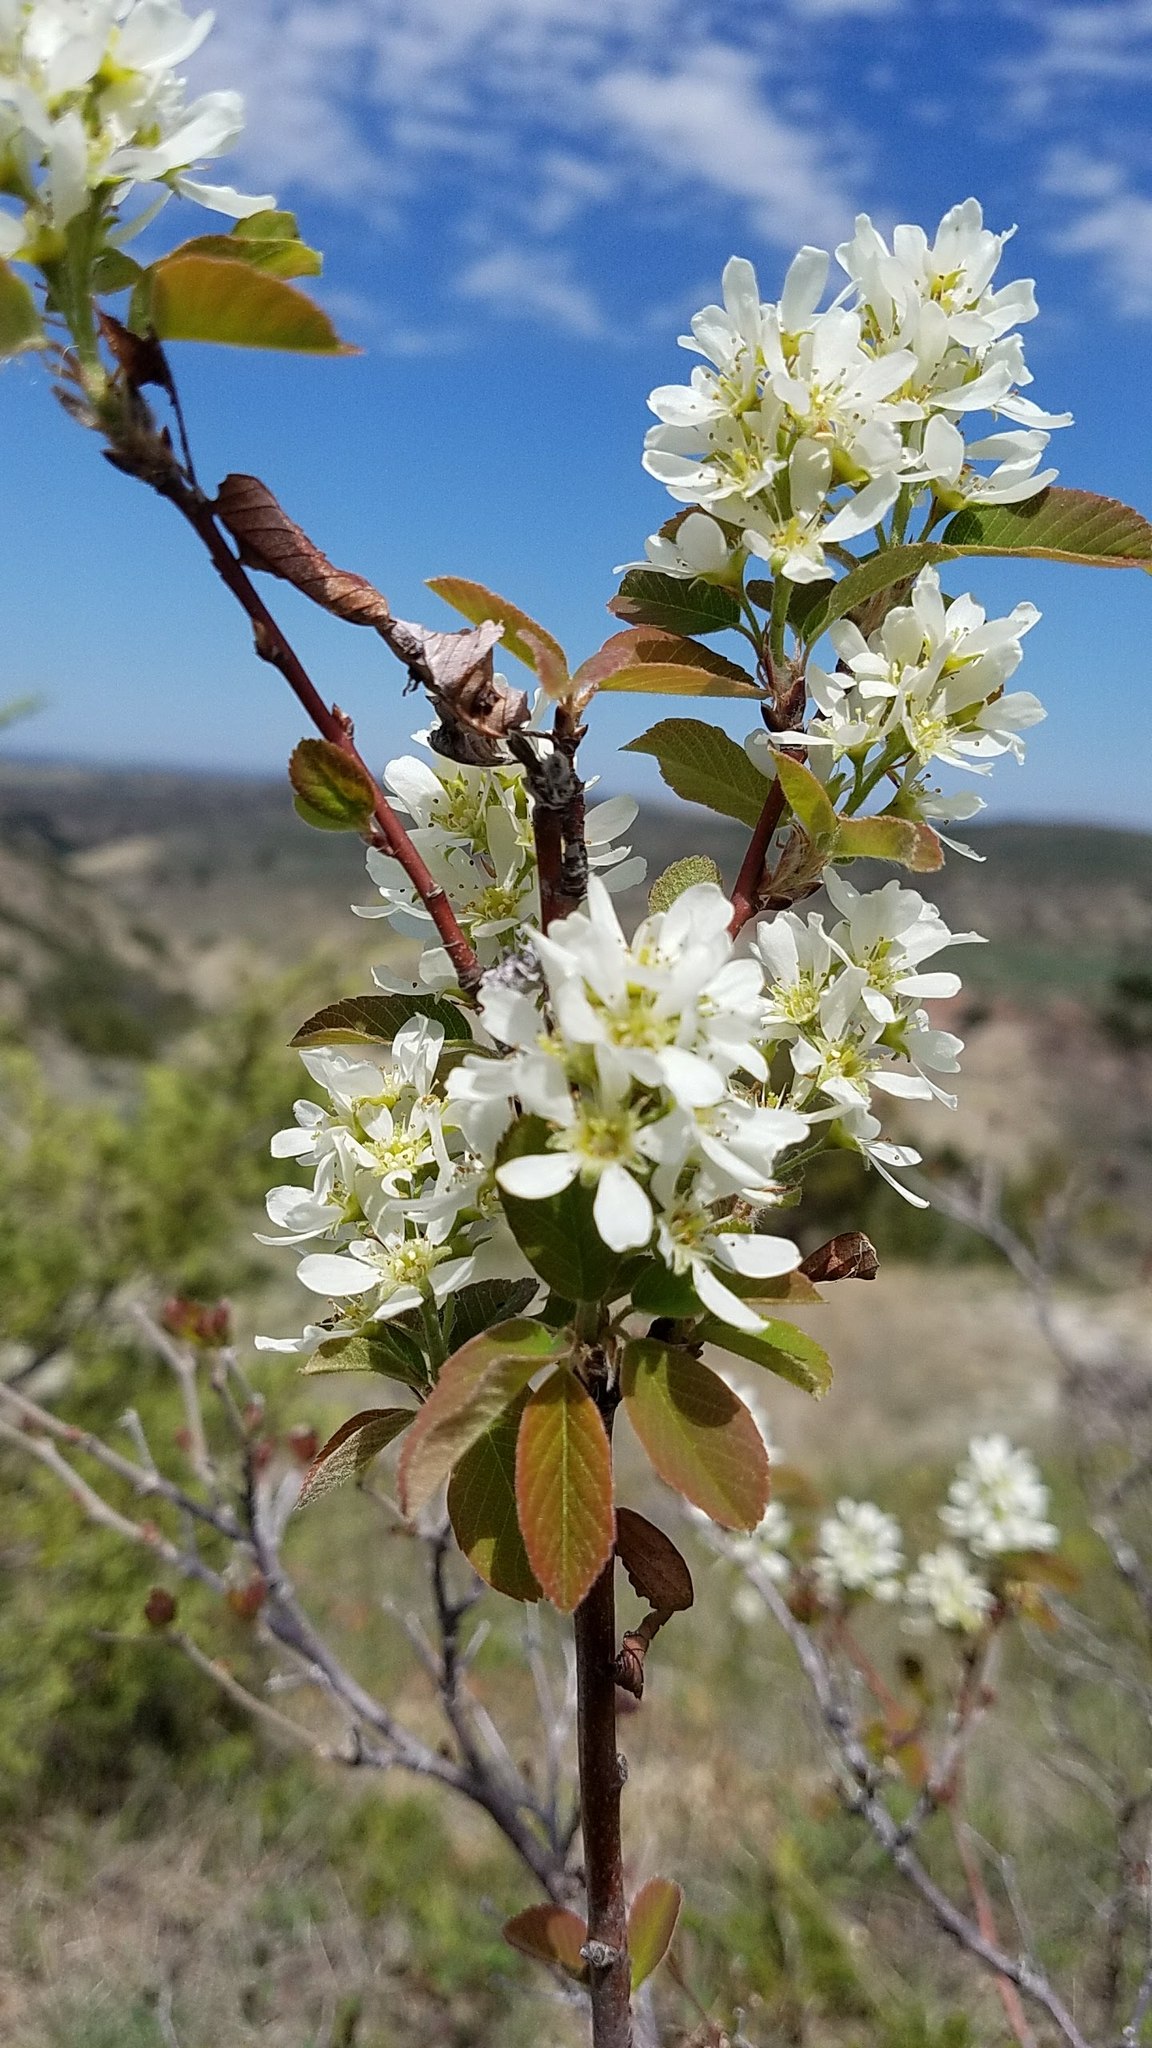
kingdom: Plantae
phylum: Tracheophyta
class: Magnoliopsida
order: Rosales
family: Rosaceae
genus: Amelanchier
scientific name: Amelanchier alnifolia
